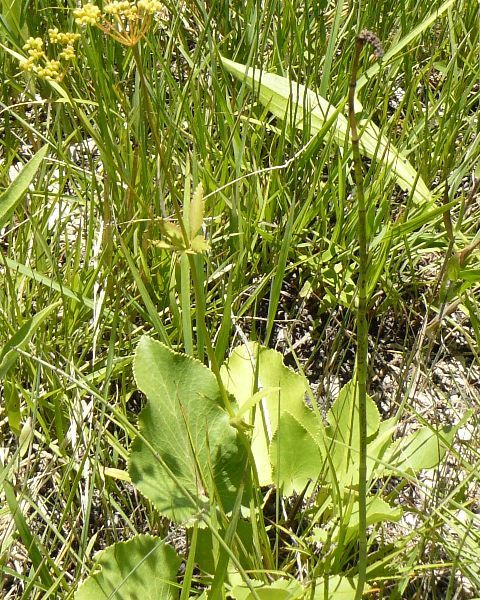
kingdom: Plantae
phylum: Tracheophyta
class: Magnoliopsida
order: Apiales
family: Apiaceae
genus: Zizia
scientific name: Zizia aptera
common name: Heart-leaved alexanders
